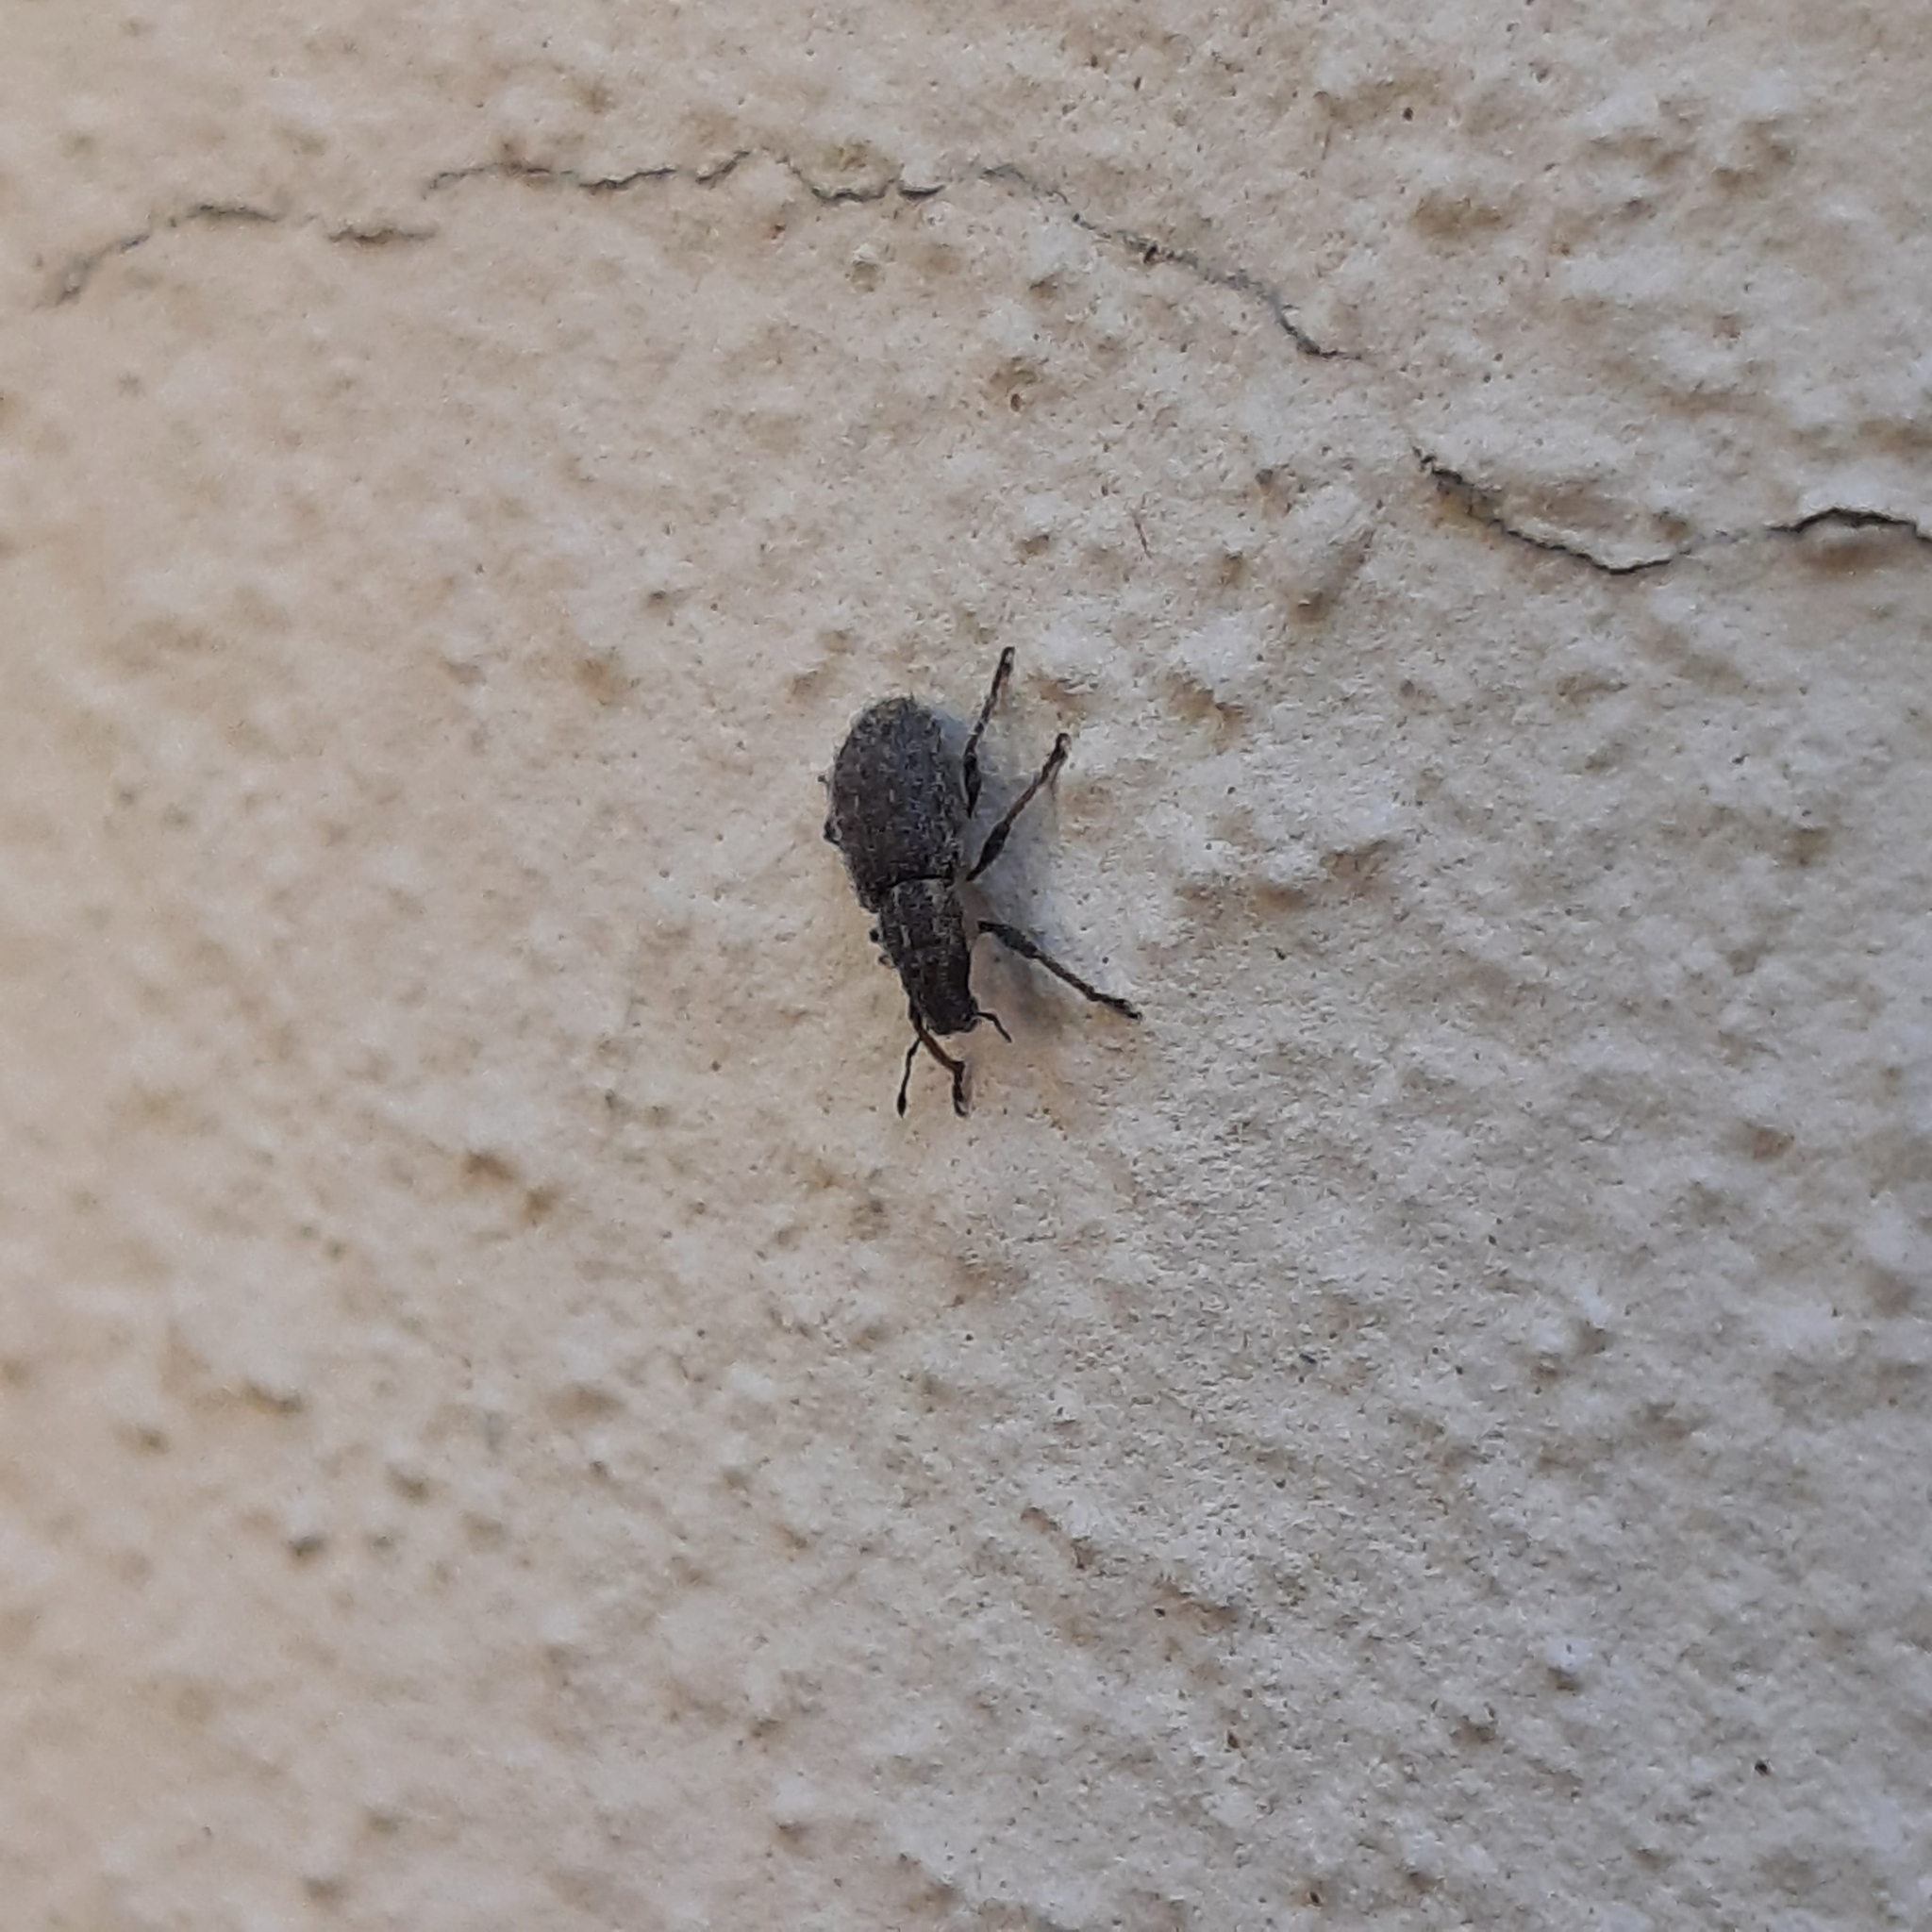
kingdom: Animalia
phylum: Arthropoda
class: Insecta
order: Coleoptera
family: Curculionidae
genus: Sitona
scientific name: Sitona hispidulus
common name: Clover weevil
